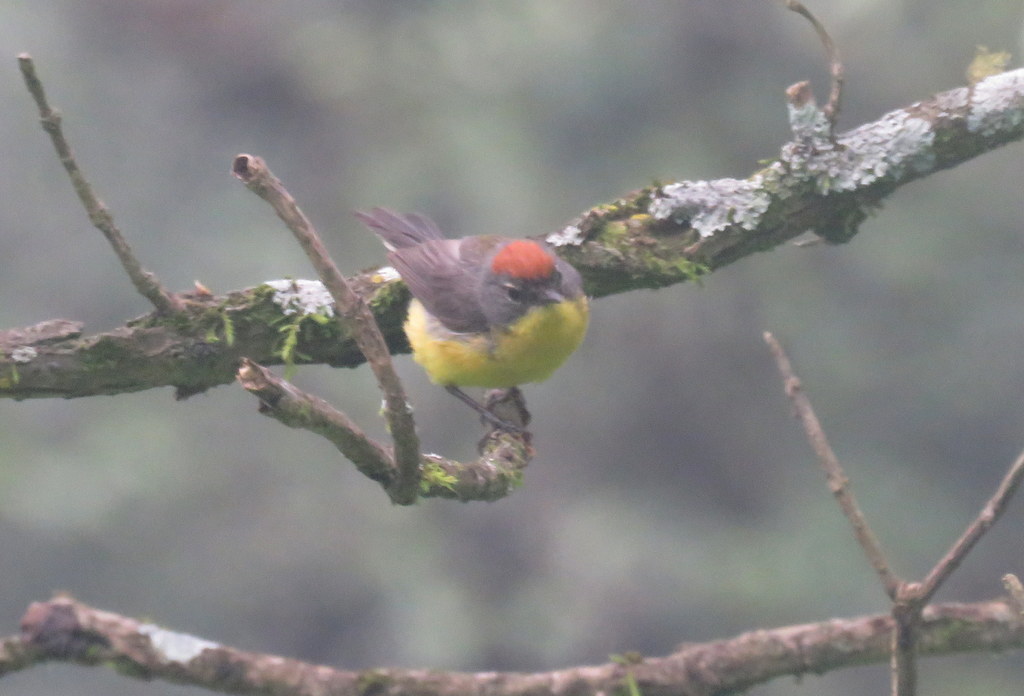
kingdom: Animalia
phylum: Chordata
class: Aves
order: Passeriformes
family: Parulidae
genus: Myioborus
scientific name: Myioborus brunniceps
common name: Brown-capped whitestart
